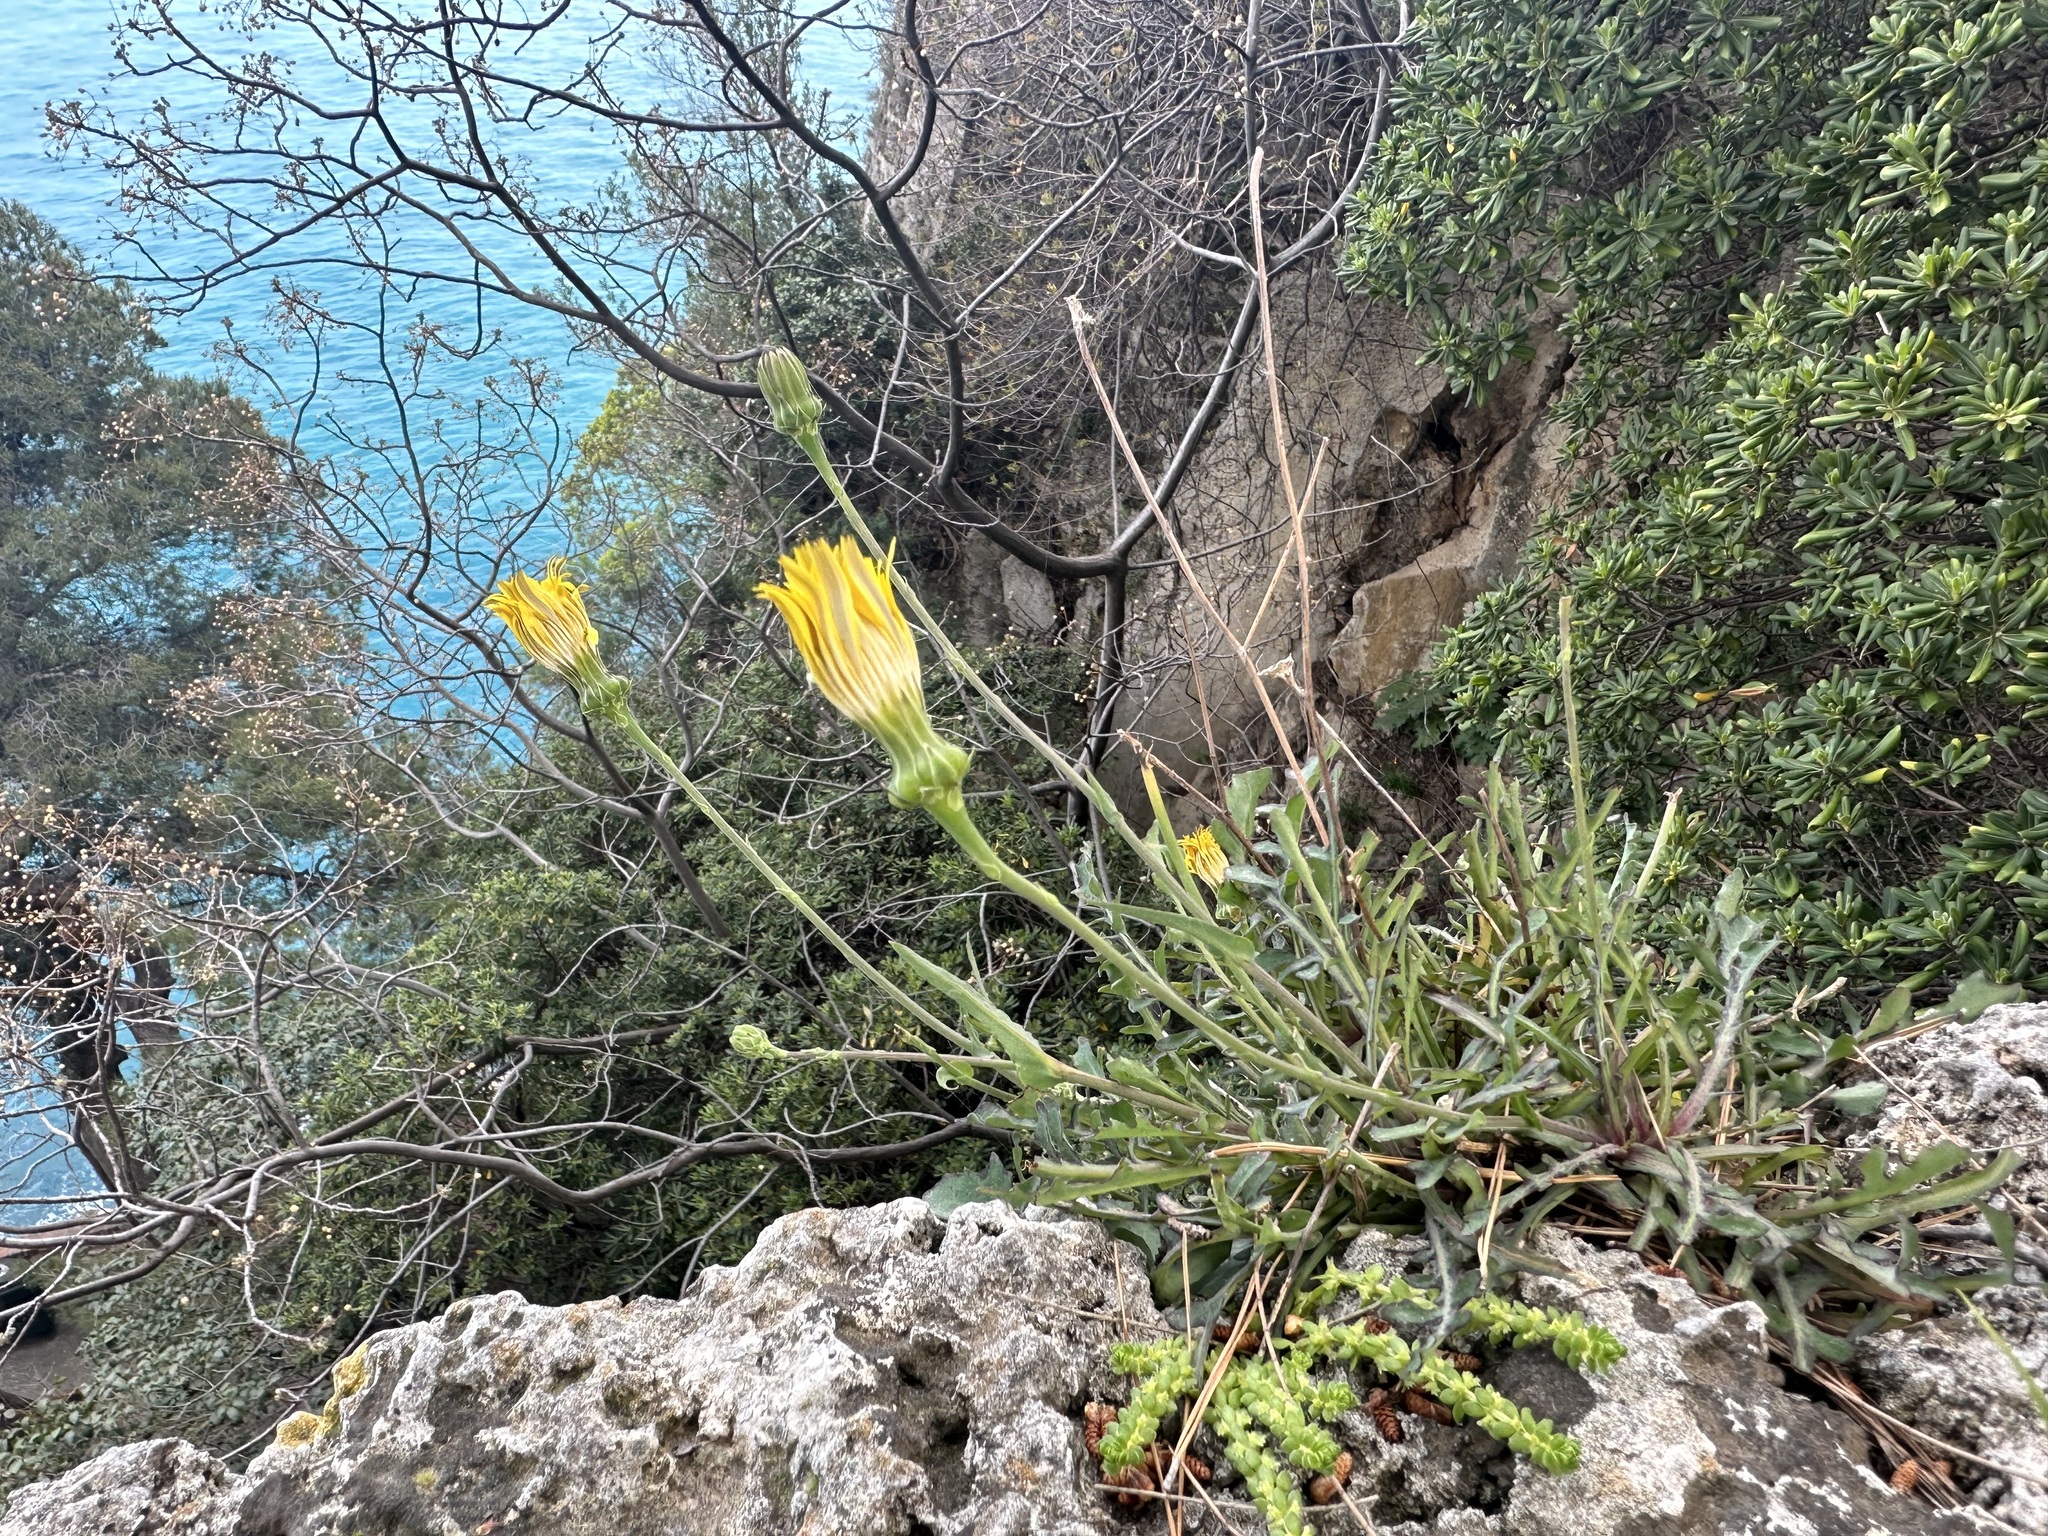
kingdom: Plantae
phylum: Tracheophyta
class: Magnoliopsida
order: Asterales
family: Asteraceae
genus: Reichardia
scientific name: Reichardia picroides
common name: Common brighteyes
